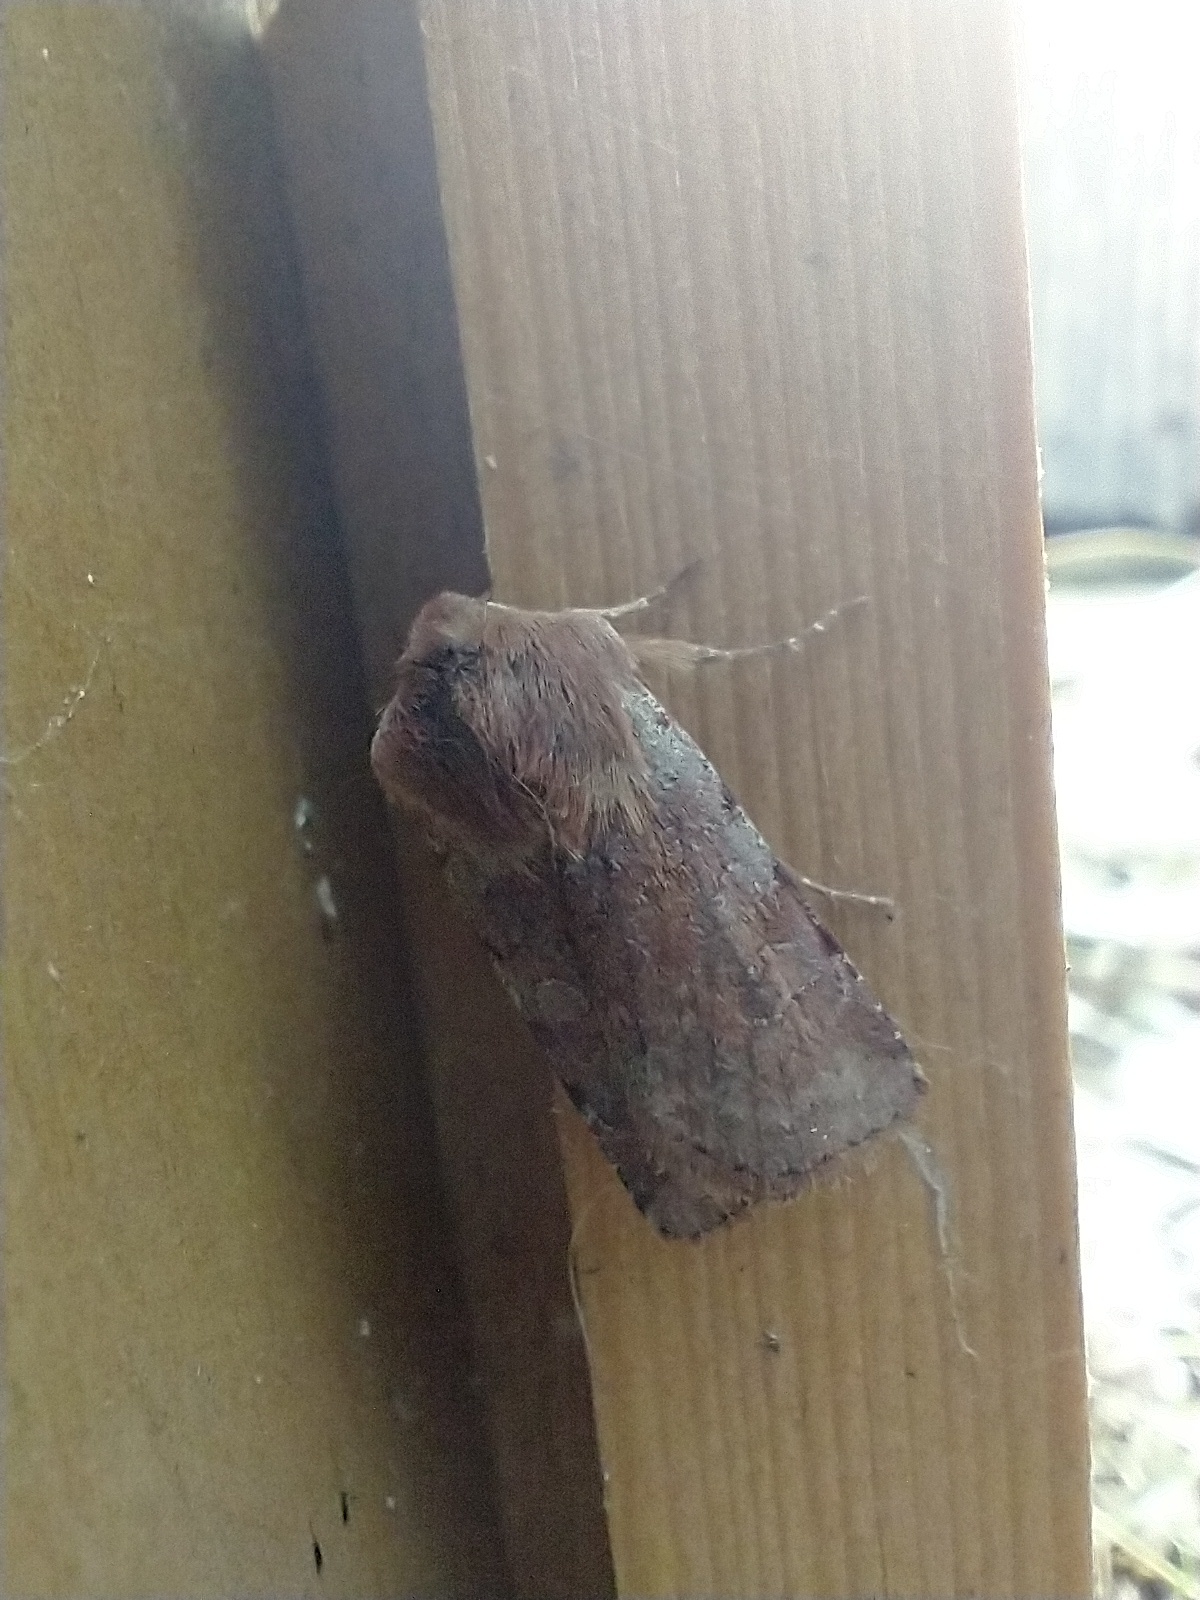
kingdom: Animalia
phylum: Arthropoda
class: Insecta
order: Lepidoptera
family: Noctuidae
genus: Cerastis
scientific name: Cerastis rubricosa
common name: Red chestnut
